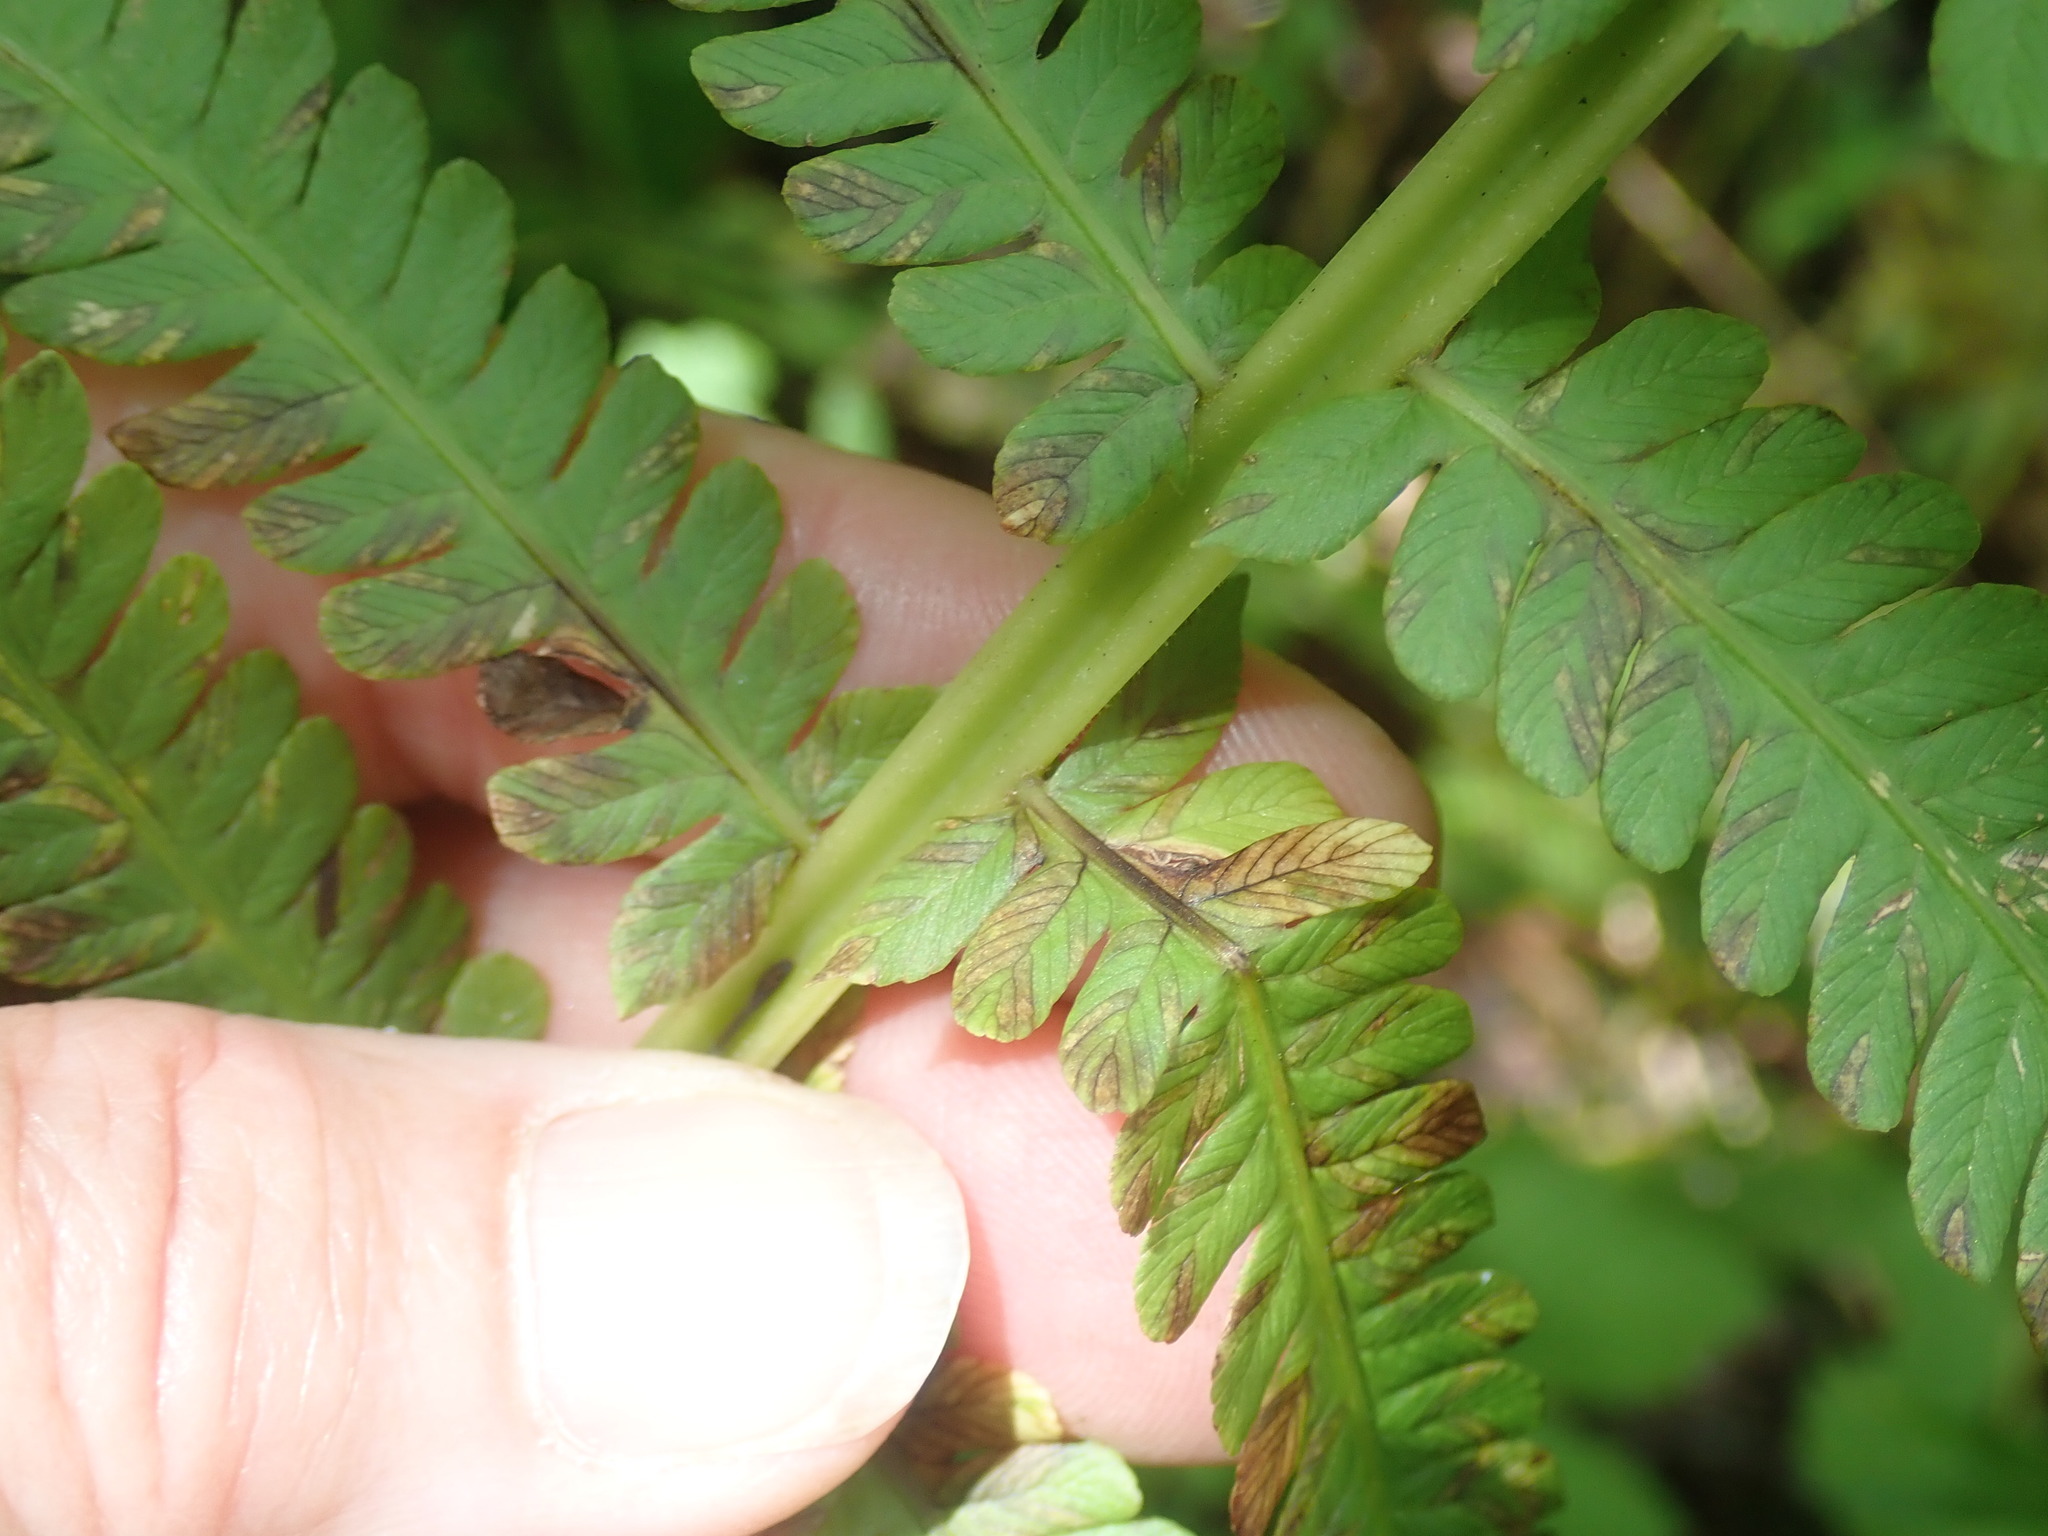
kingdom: Plantae
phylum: Tracheophyta
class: Polypodiopsida
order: Polypodiales
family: Onocleaceae
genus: Matteuccia
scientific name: Matteuccia struthiopteris
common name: Ostrich fern
